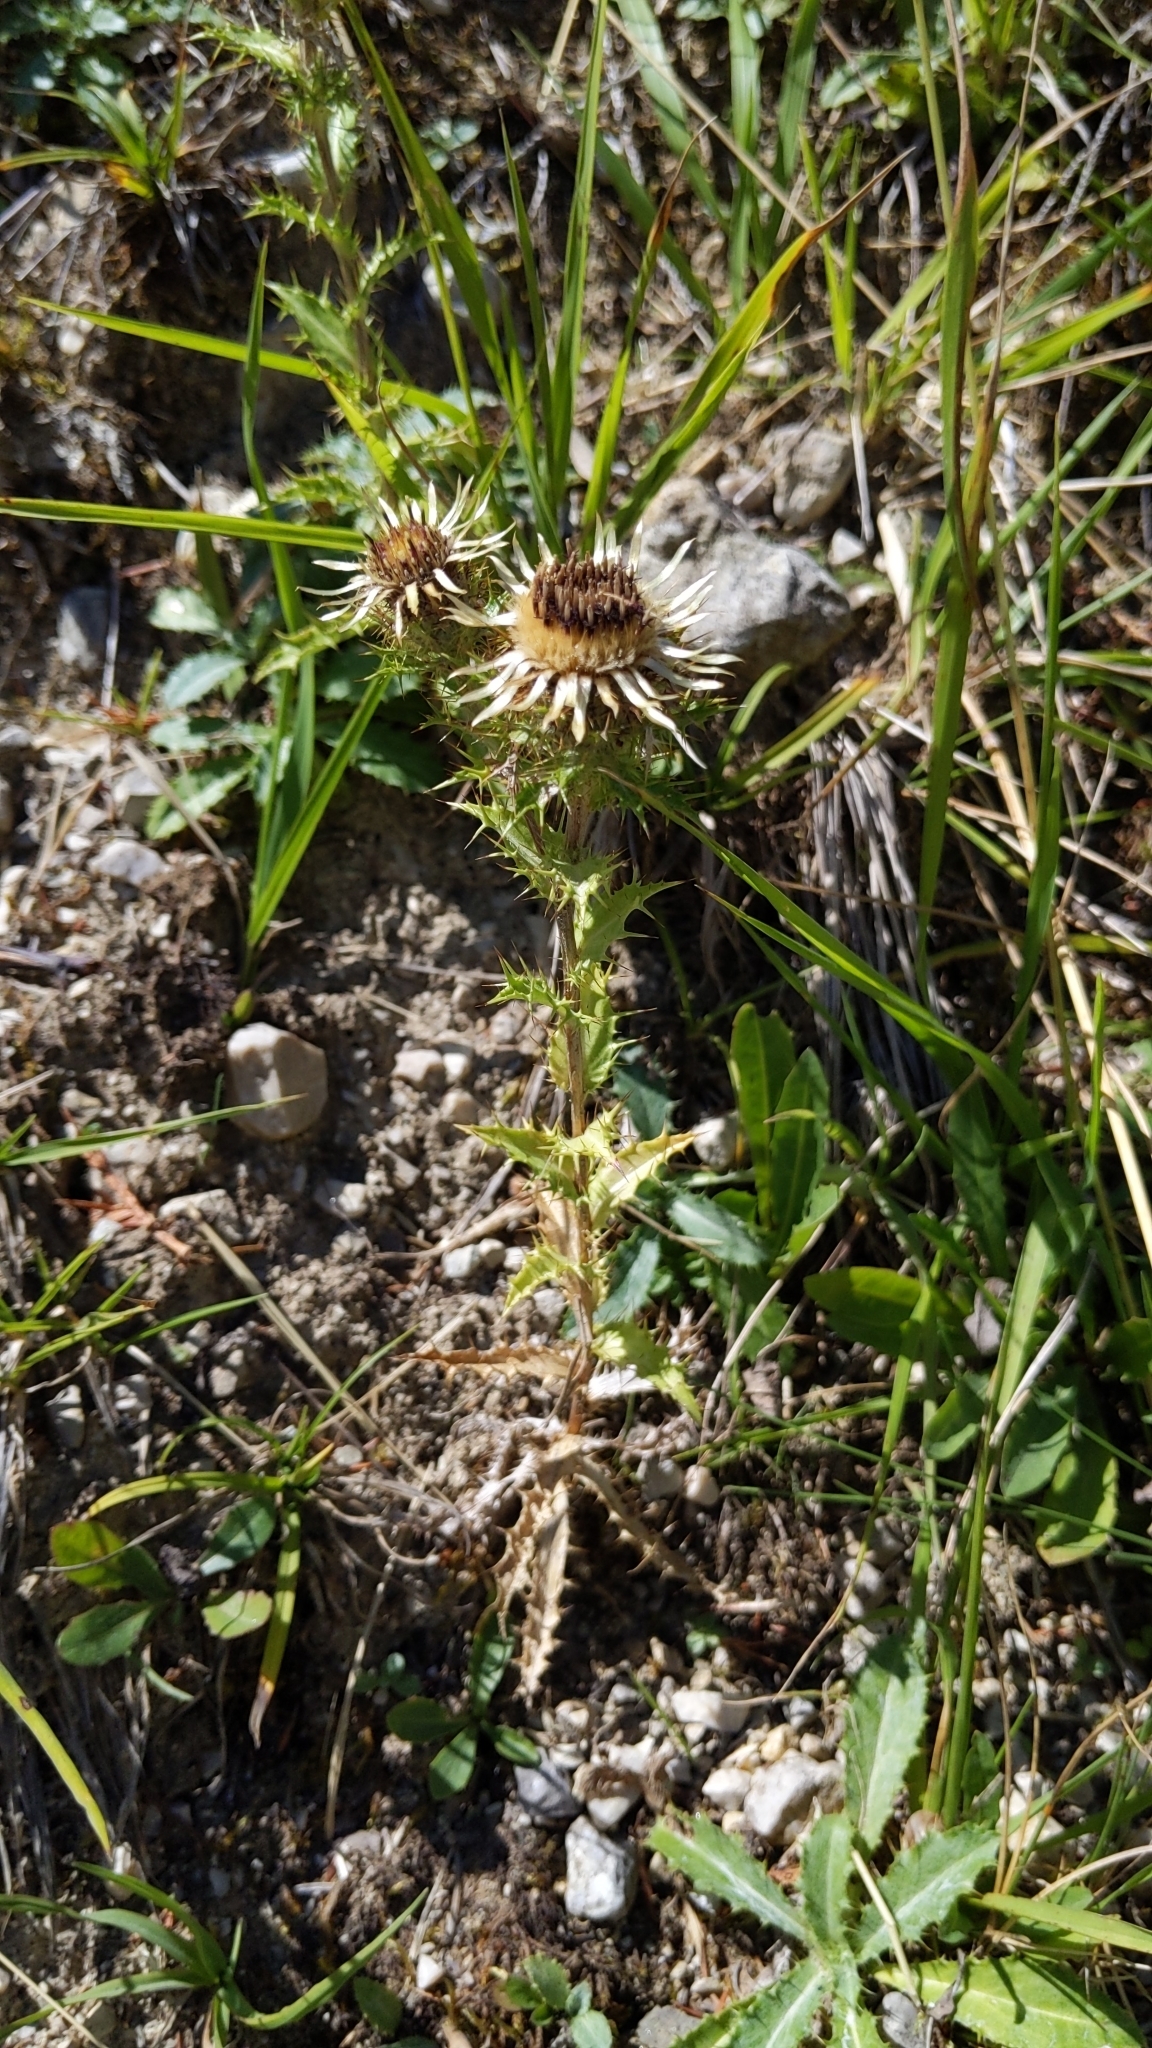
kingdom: Plantae
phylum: Tracheophyta
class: Magnoliopsida
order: Asterales
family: Asteraceae
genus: Carlina
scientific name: Carlina vulgaris
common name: Carline thistle
